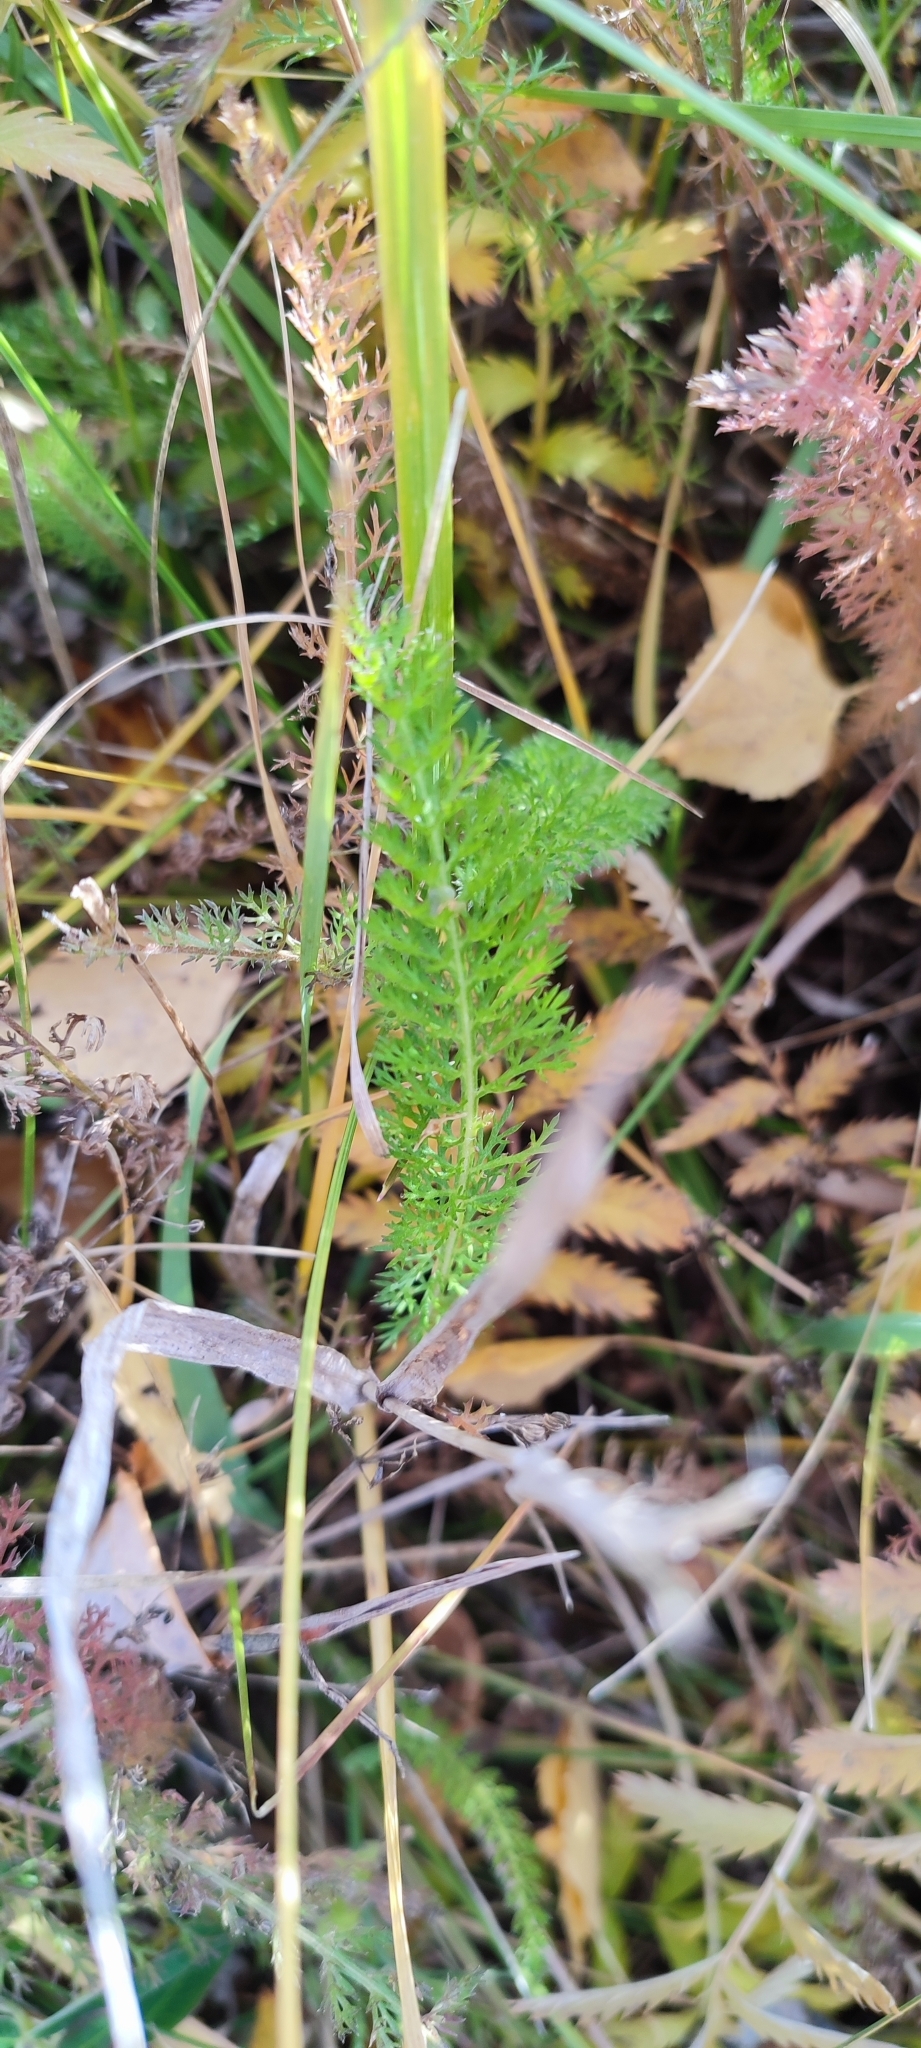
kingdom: Plantae
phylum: Tracheophyta
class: Magnoliopsida
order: Asterales
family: Asteraceae
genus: Achillea
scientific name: Achillea millefolium
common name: Yarrow
